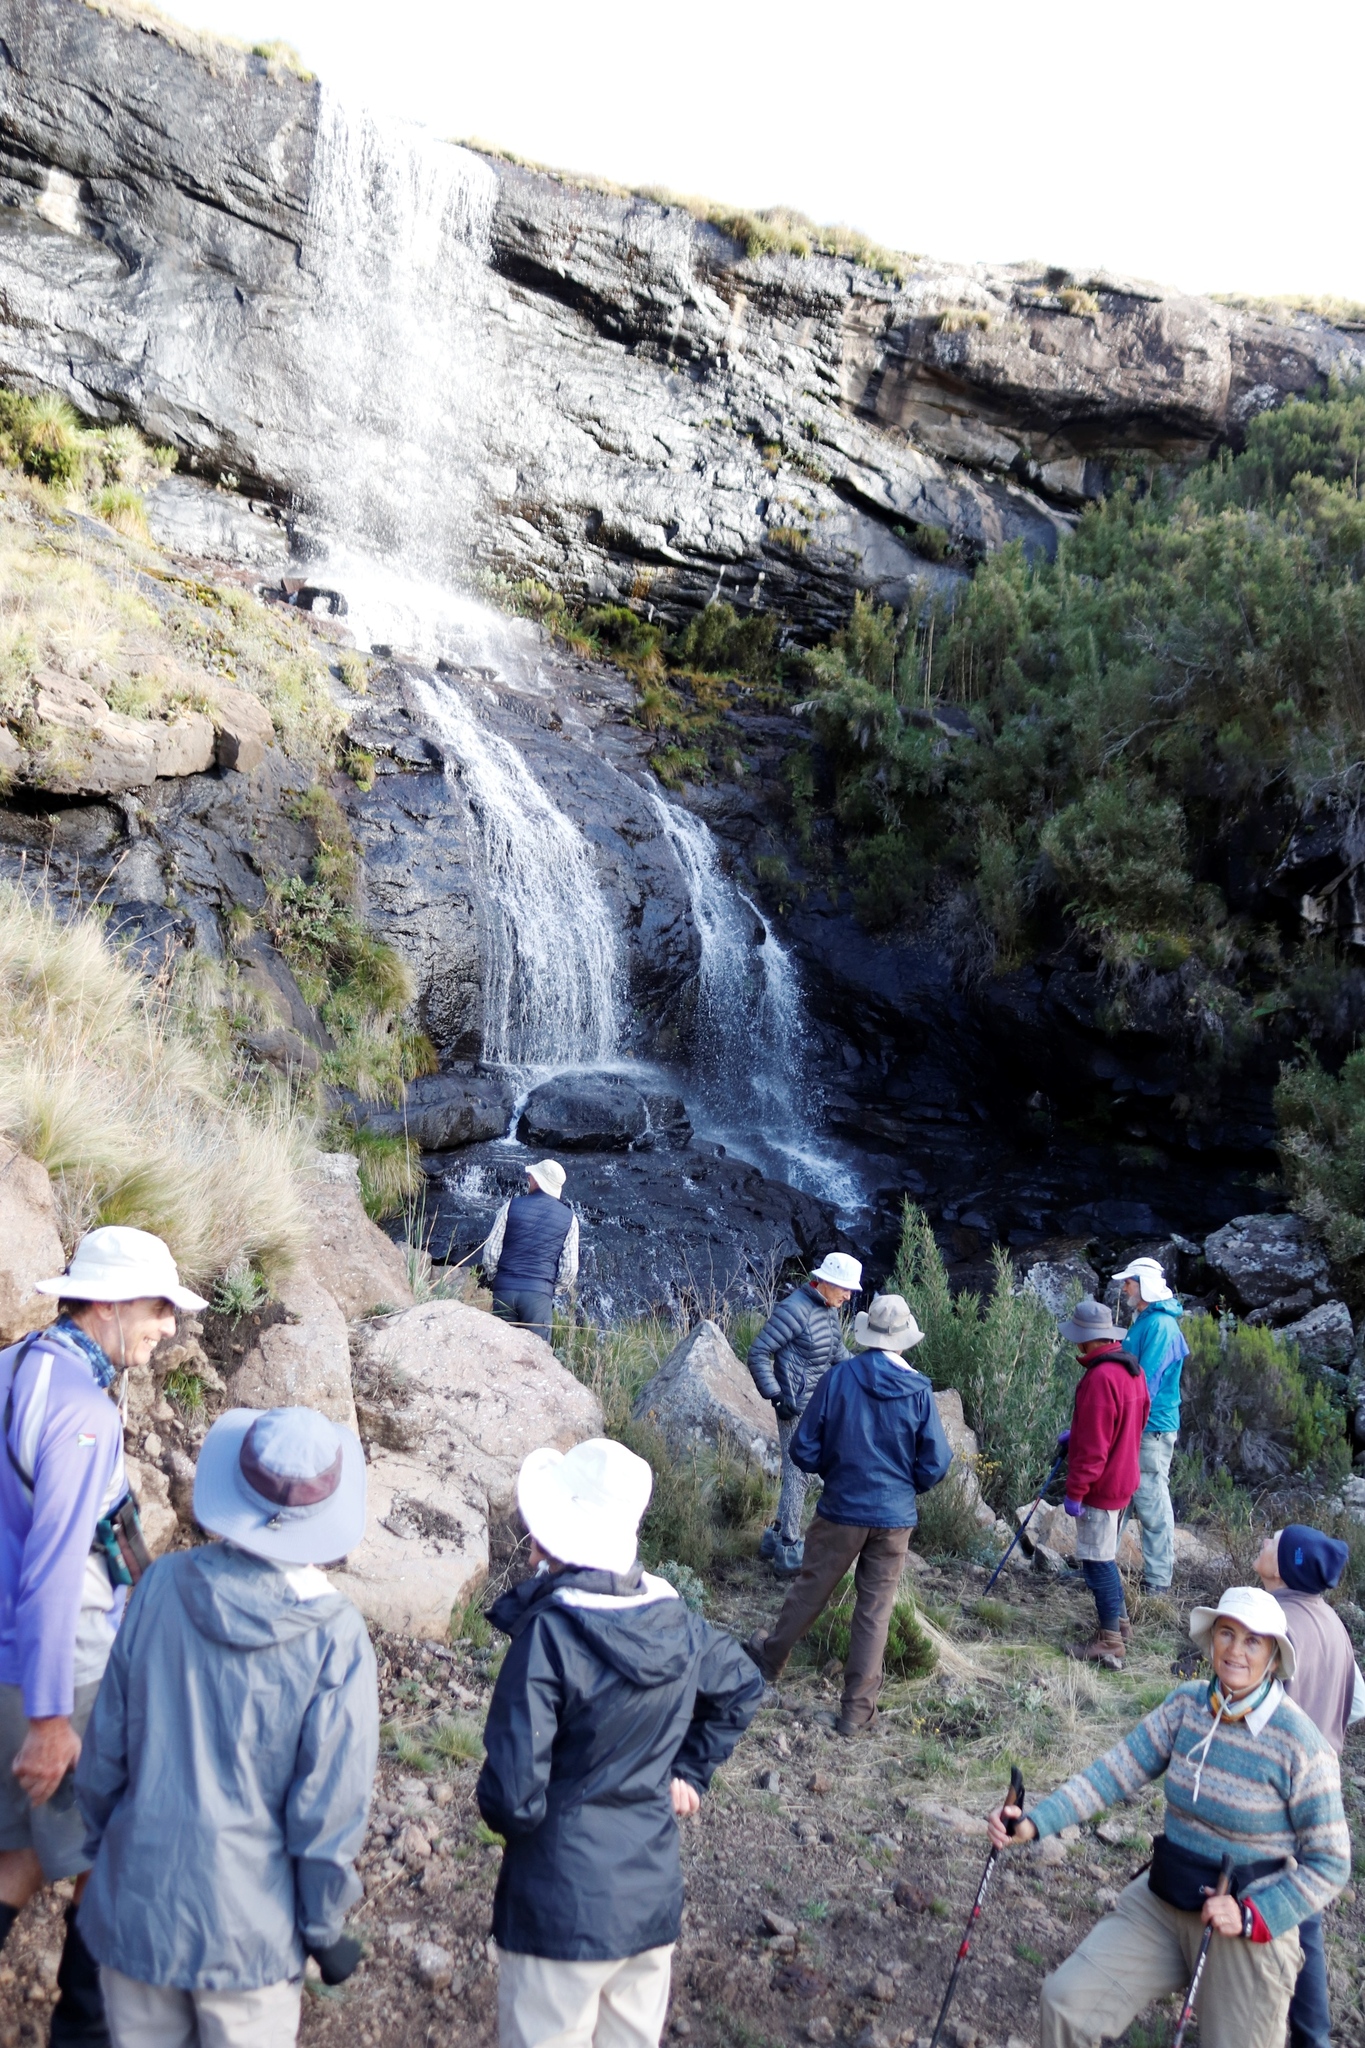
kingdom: Plantae
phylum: Tracheophyta
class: Liliopsida
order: Poales
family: Poaceae
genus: Bergbambos
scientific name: Bergbambos tessellata
